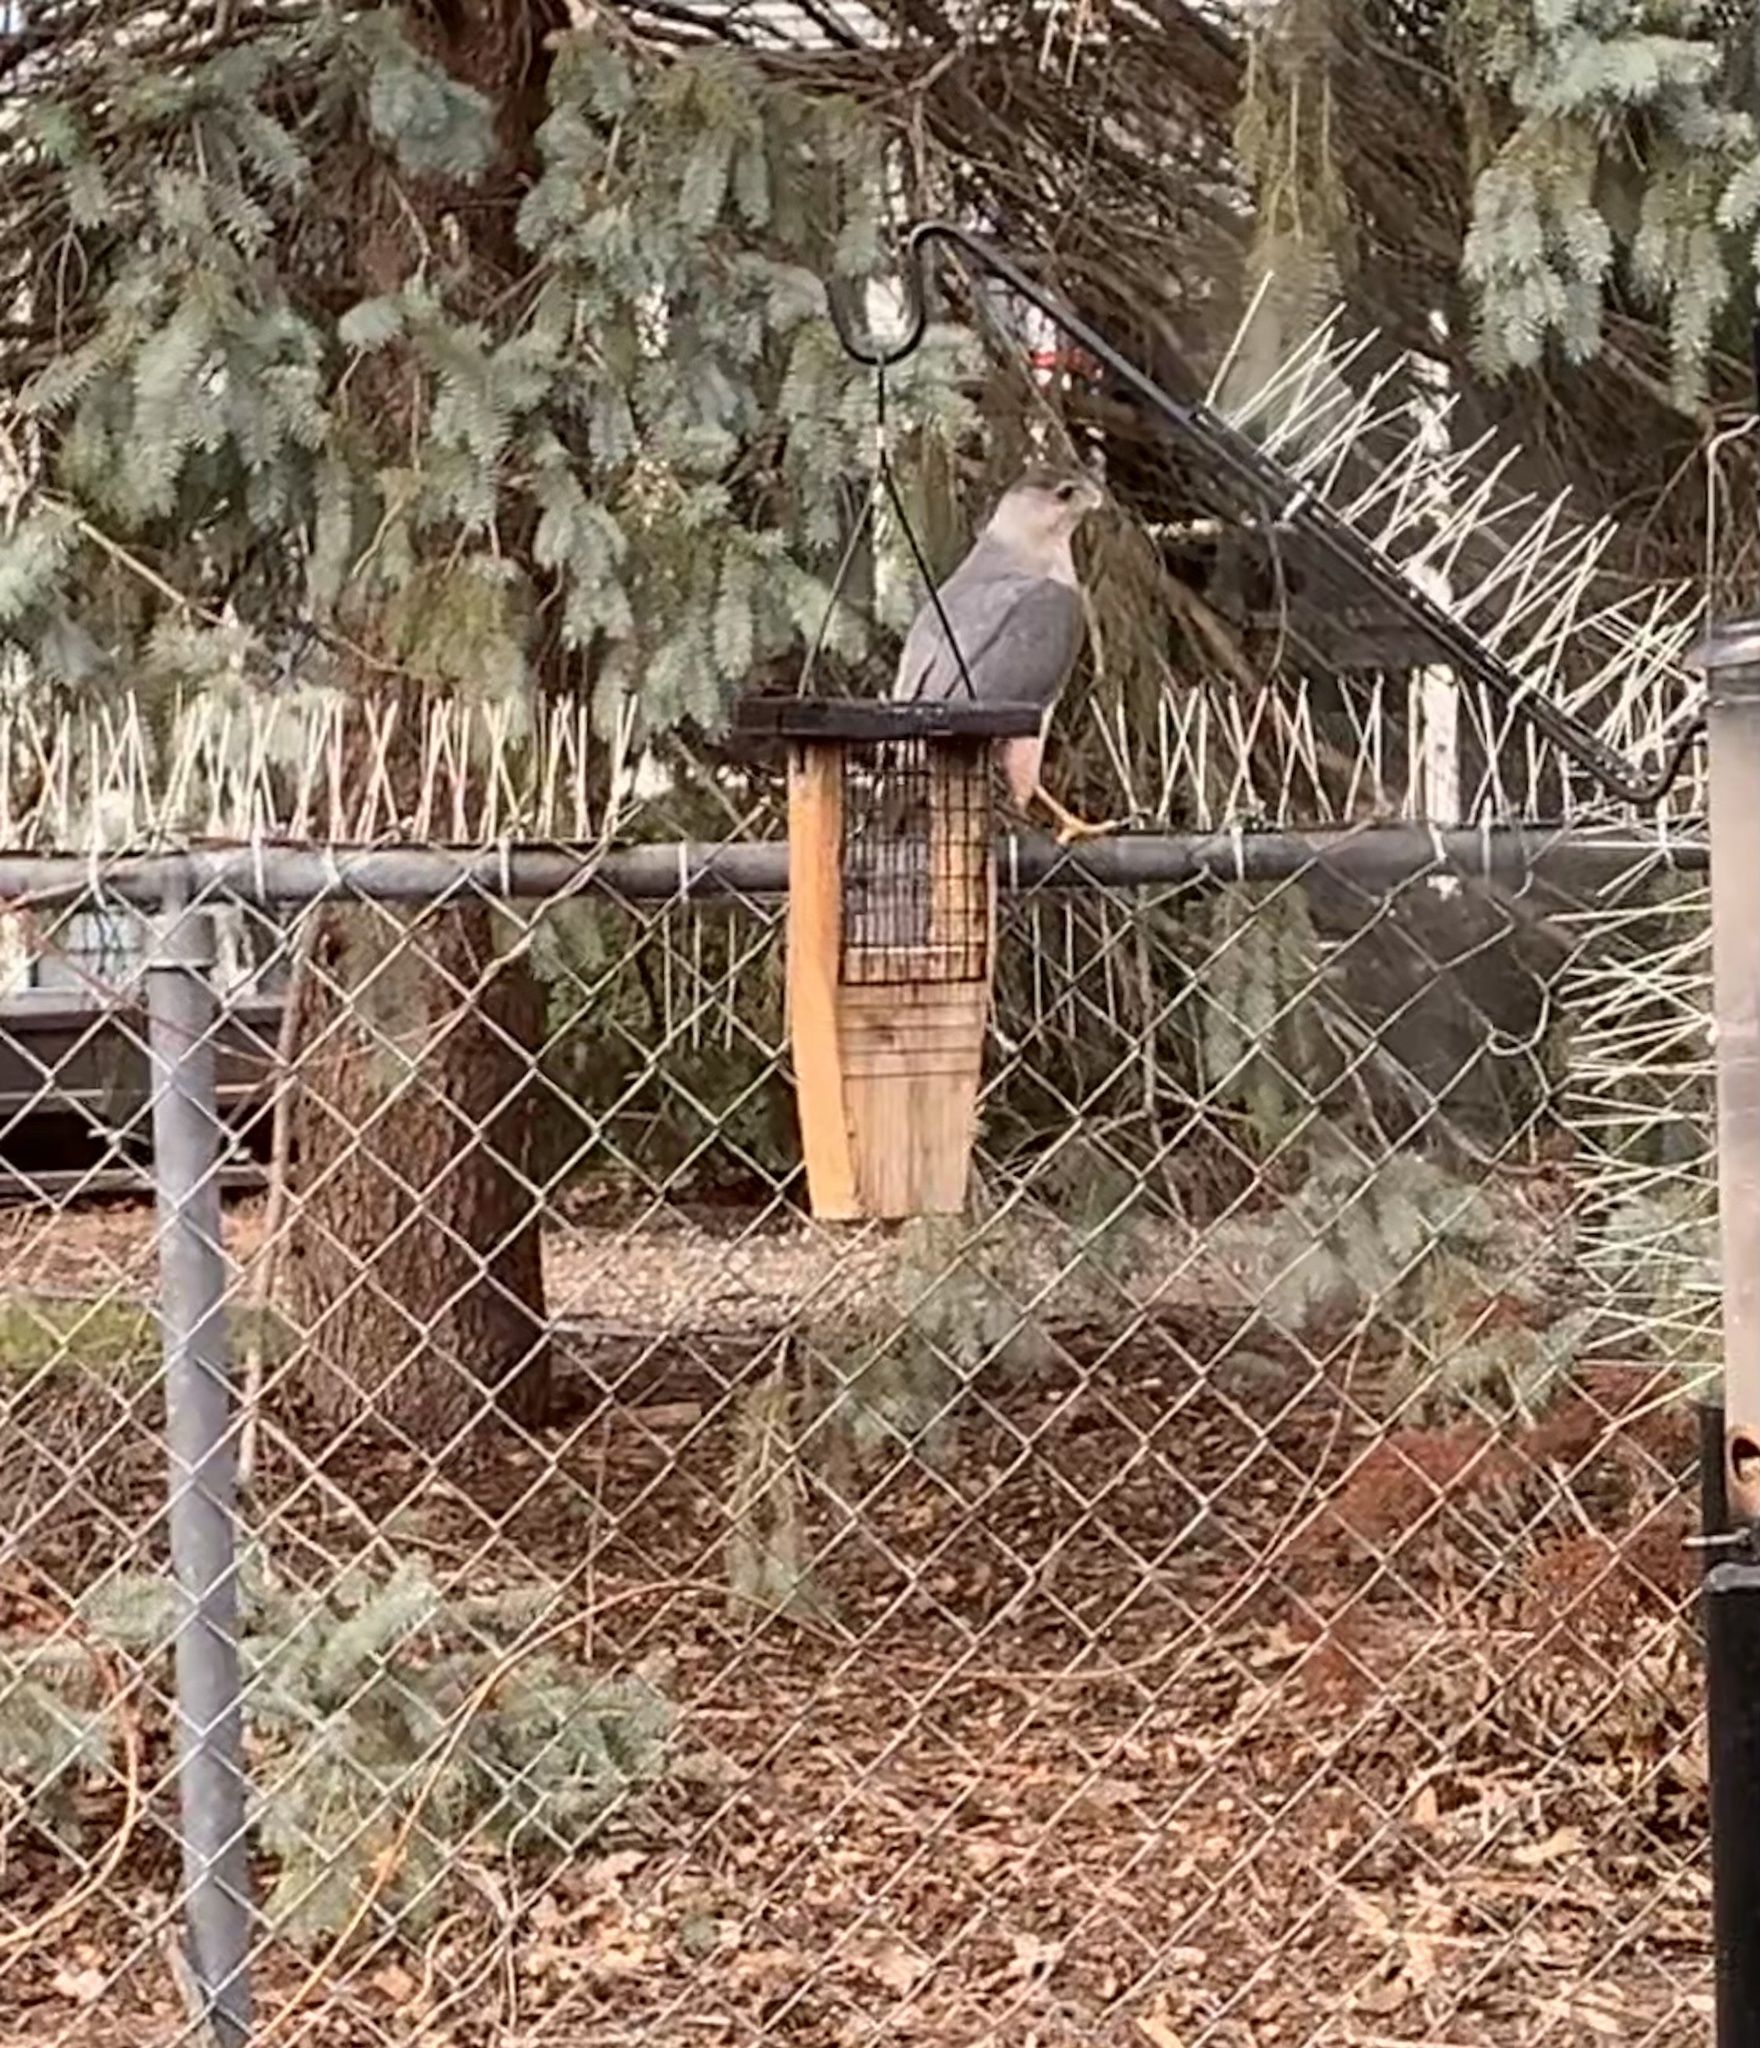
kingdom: Animalia
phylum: Chordata
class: Aves
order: Accipitriformes
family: Accipitridae
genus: Accipiter
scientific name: Accipiter cooperii
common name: Cooper's hawk
